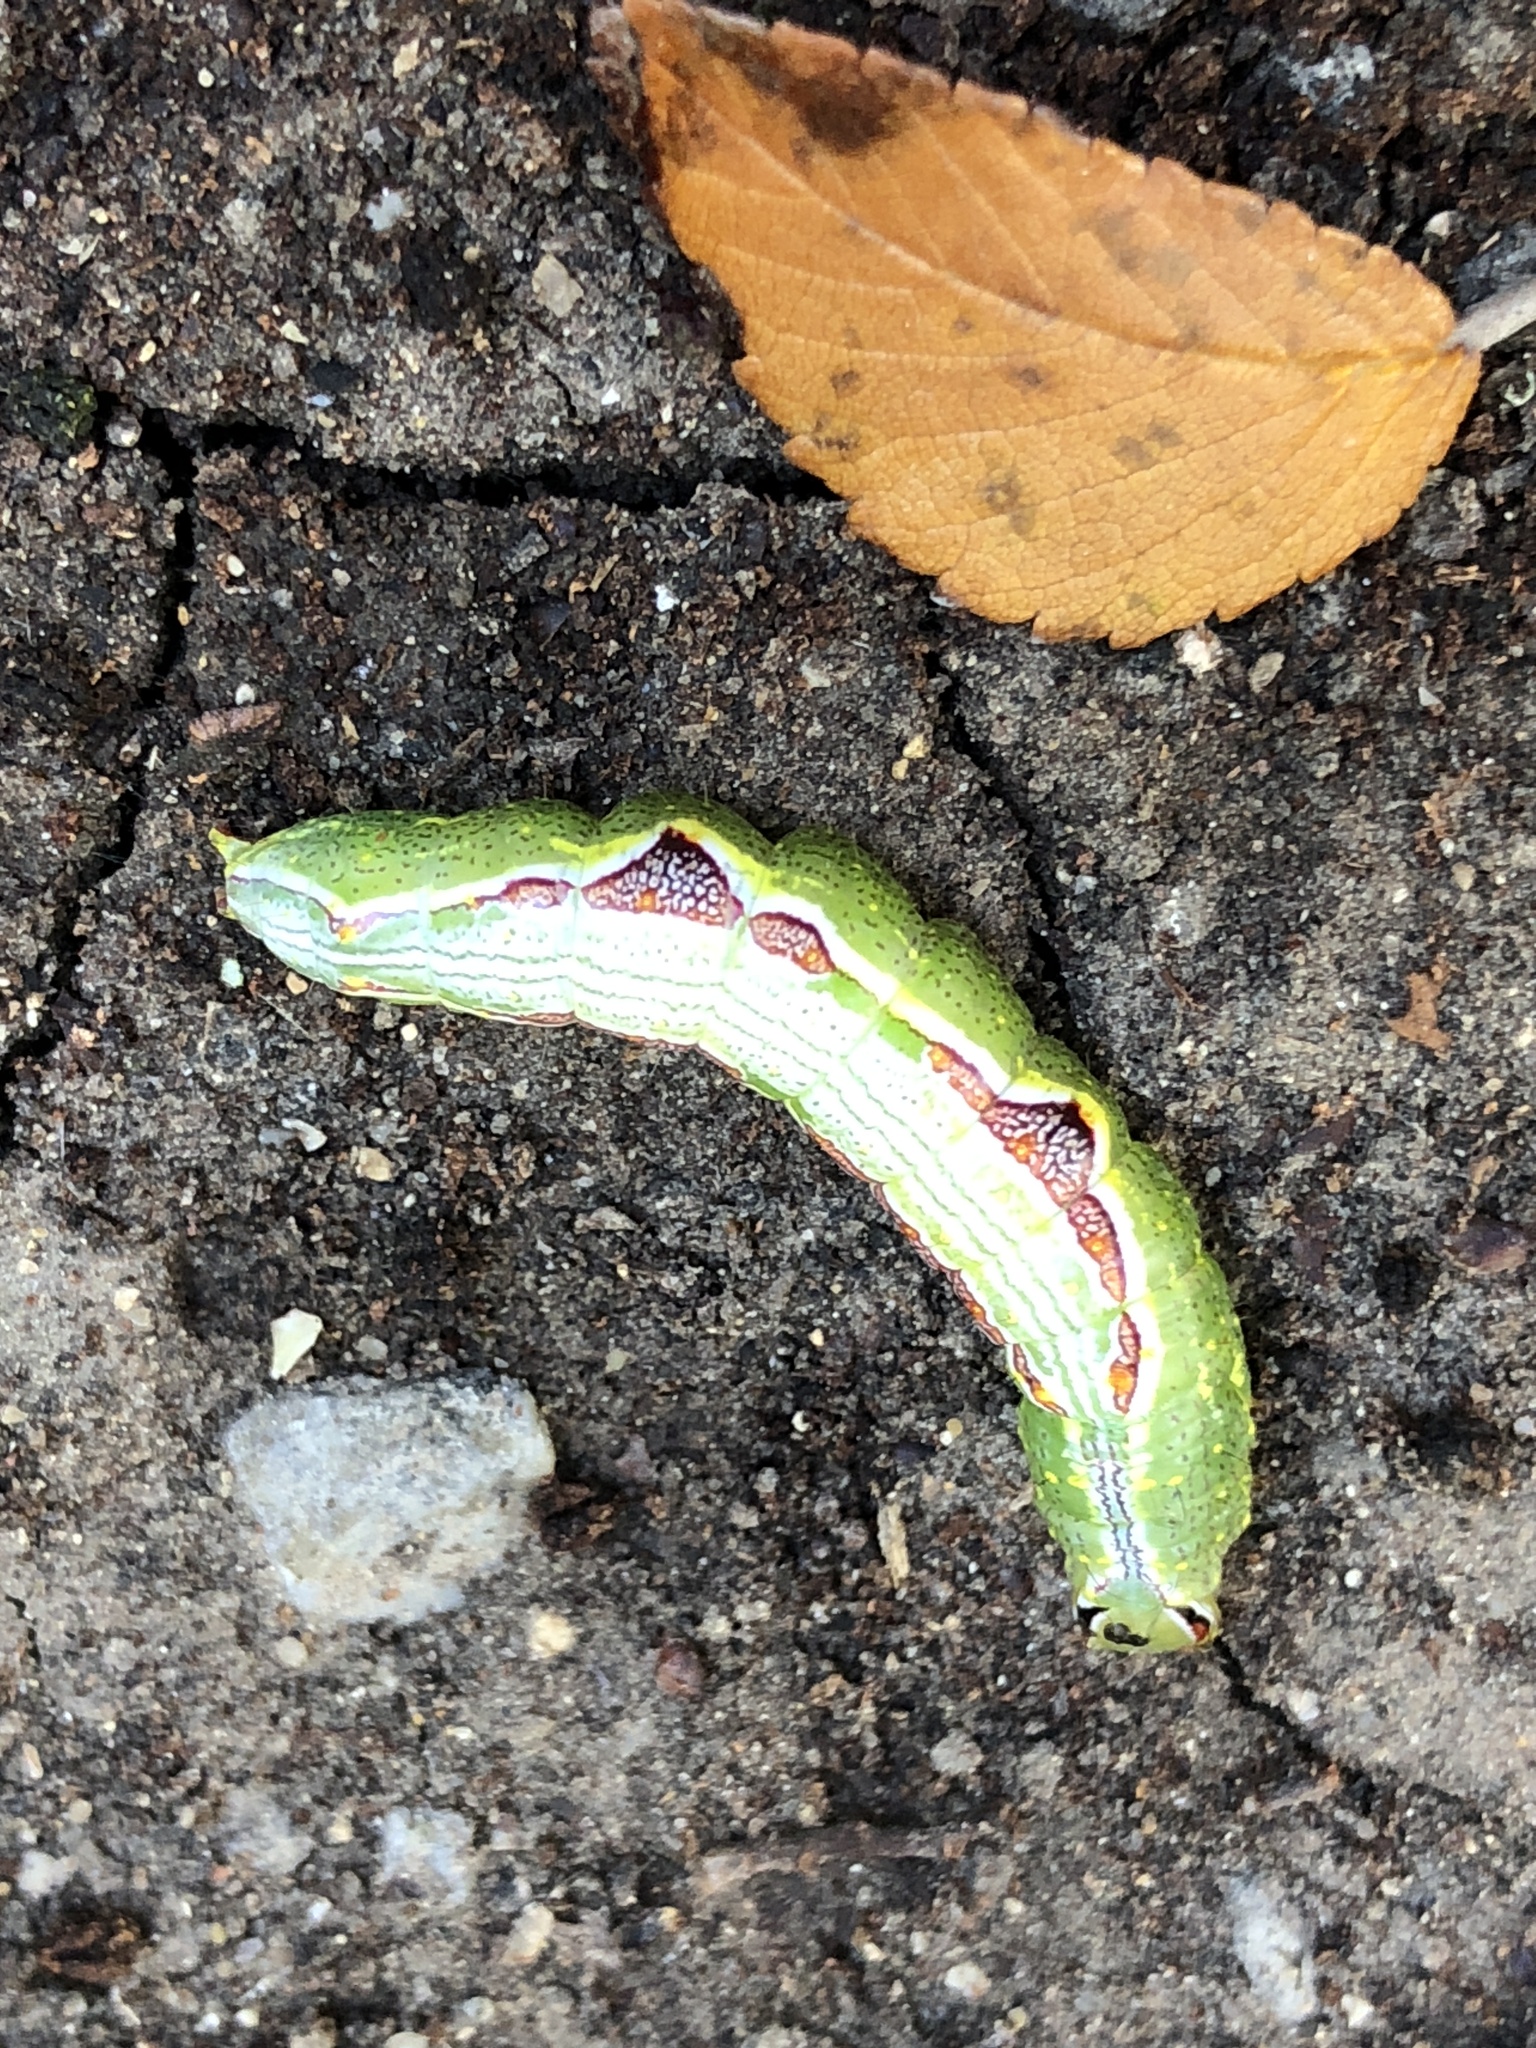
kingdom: Animalia
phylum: Arthropoda
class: Insecta
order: Lepidoptera
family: Notodontidae
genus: Lochmaeus
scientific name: Lochmaeus bilineata
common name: Double-lined prominent
